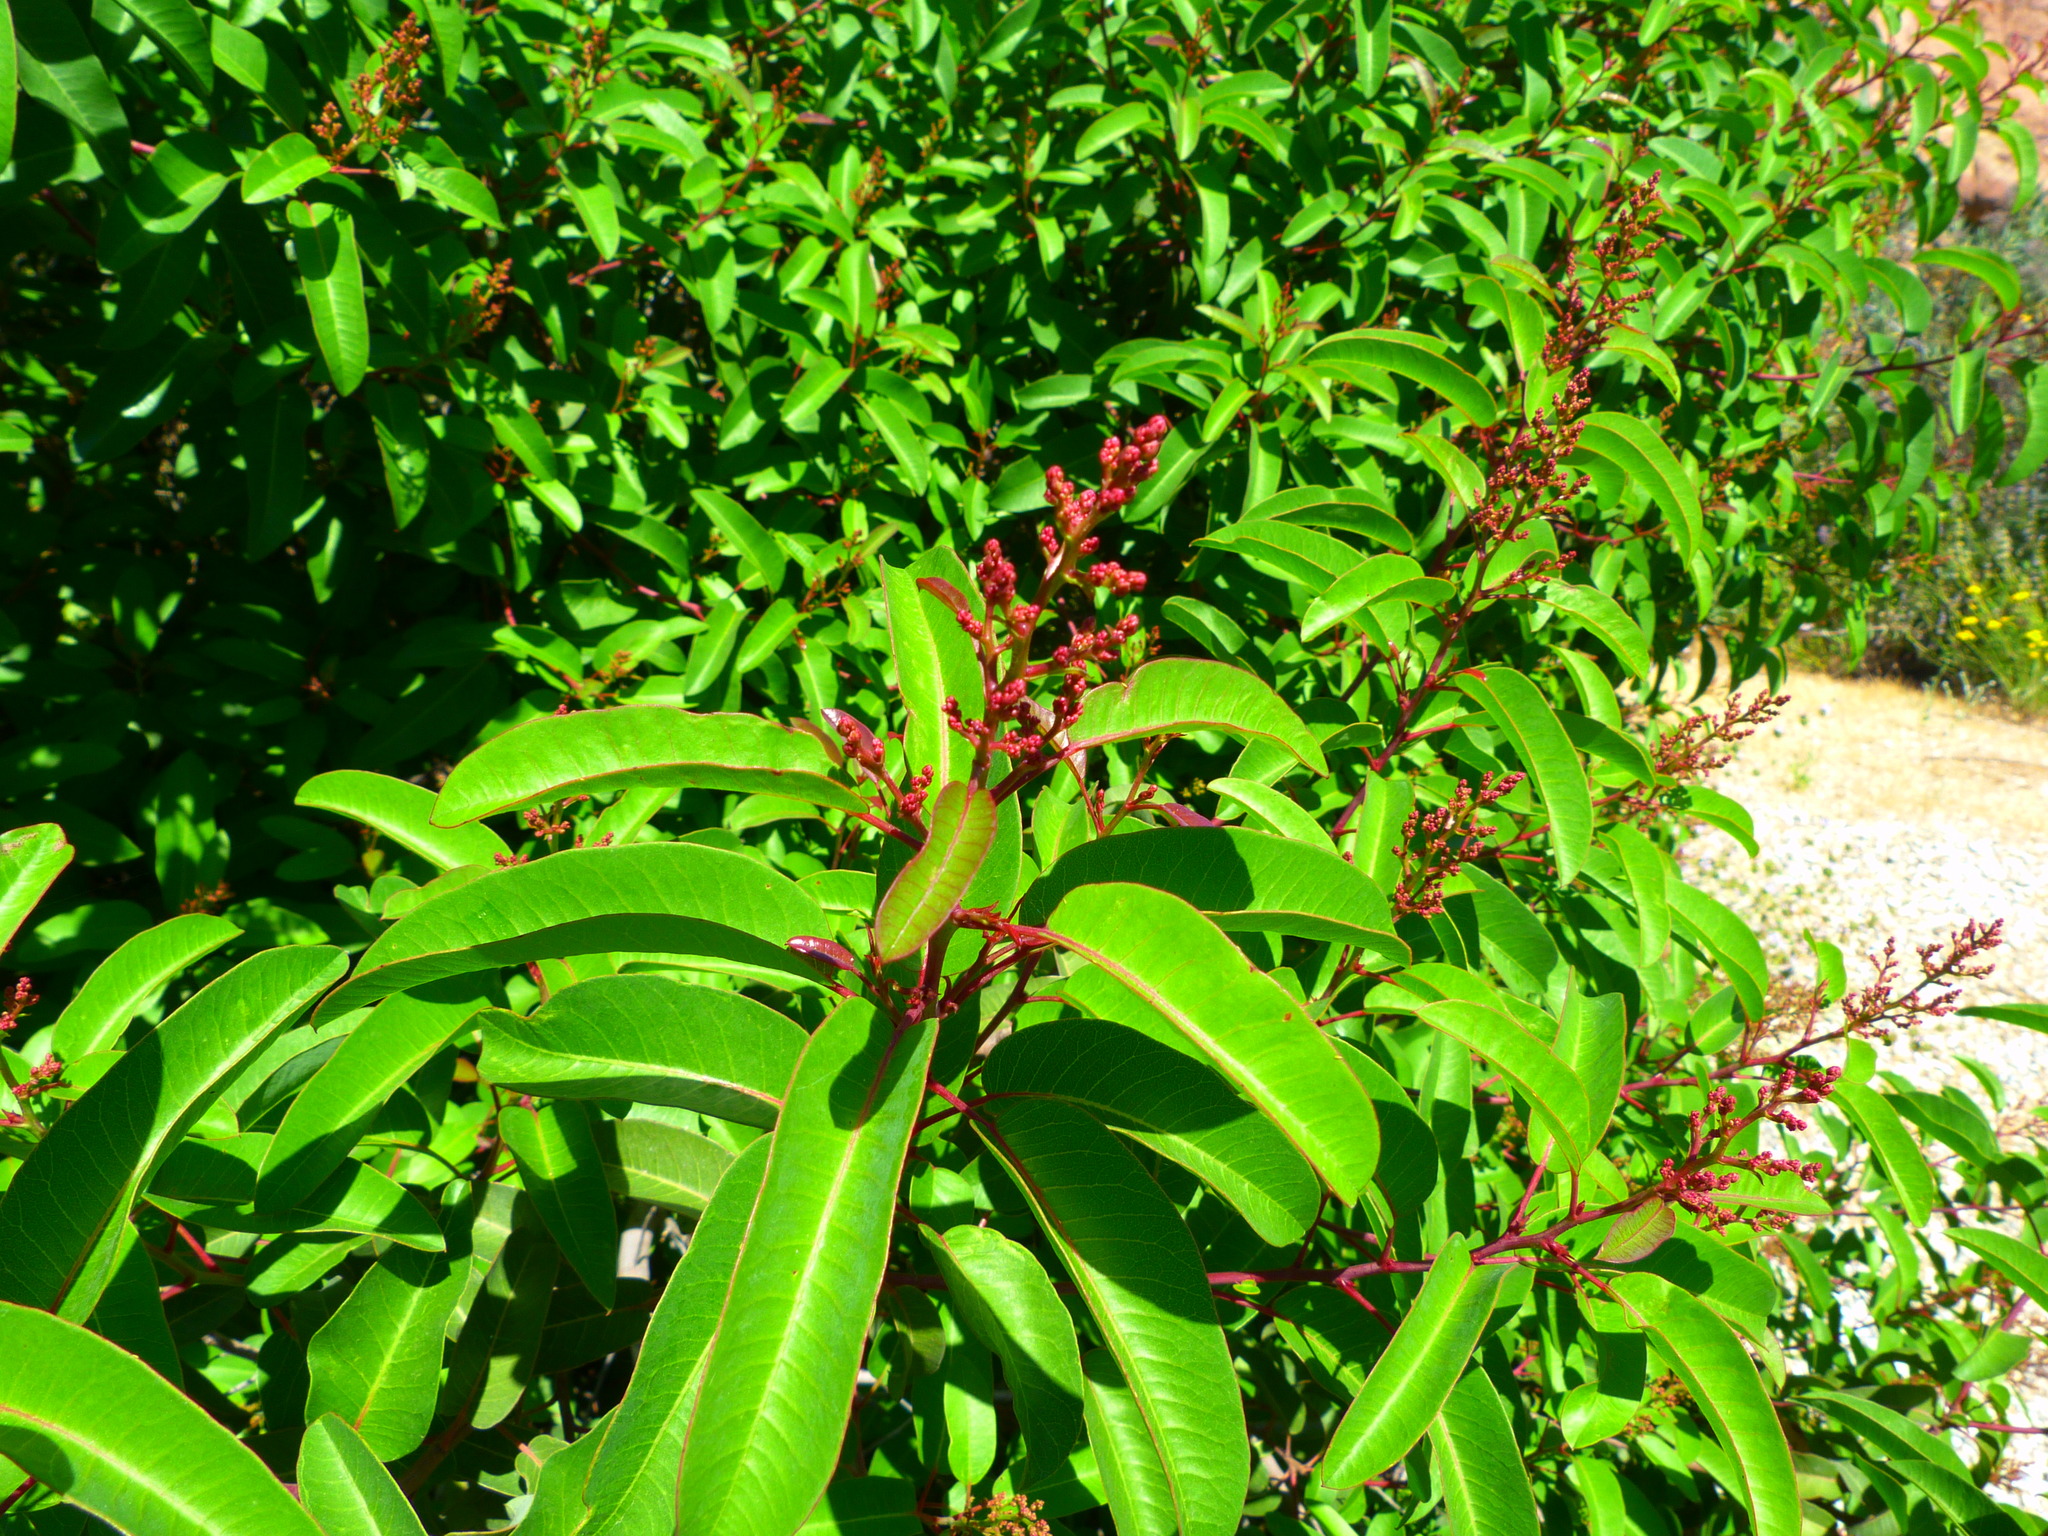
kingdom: Plantae
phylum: Tracheophyta
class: Magnoliopsida
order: Sapindales
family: Anacardiaceae
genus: Malosma
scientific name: Malosma laurina
